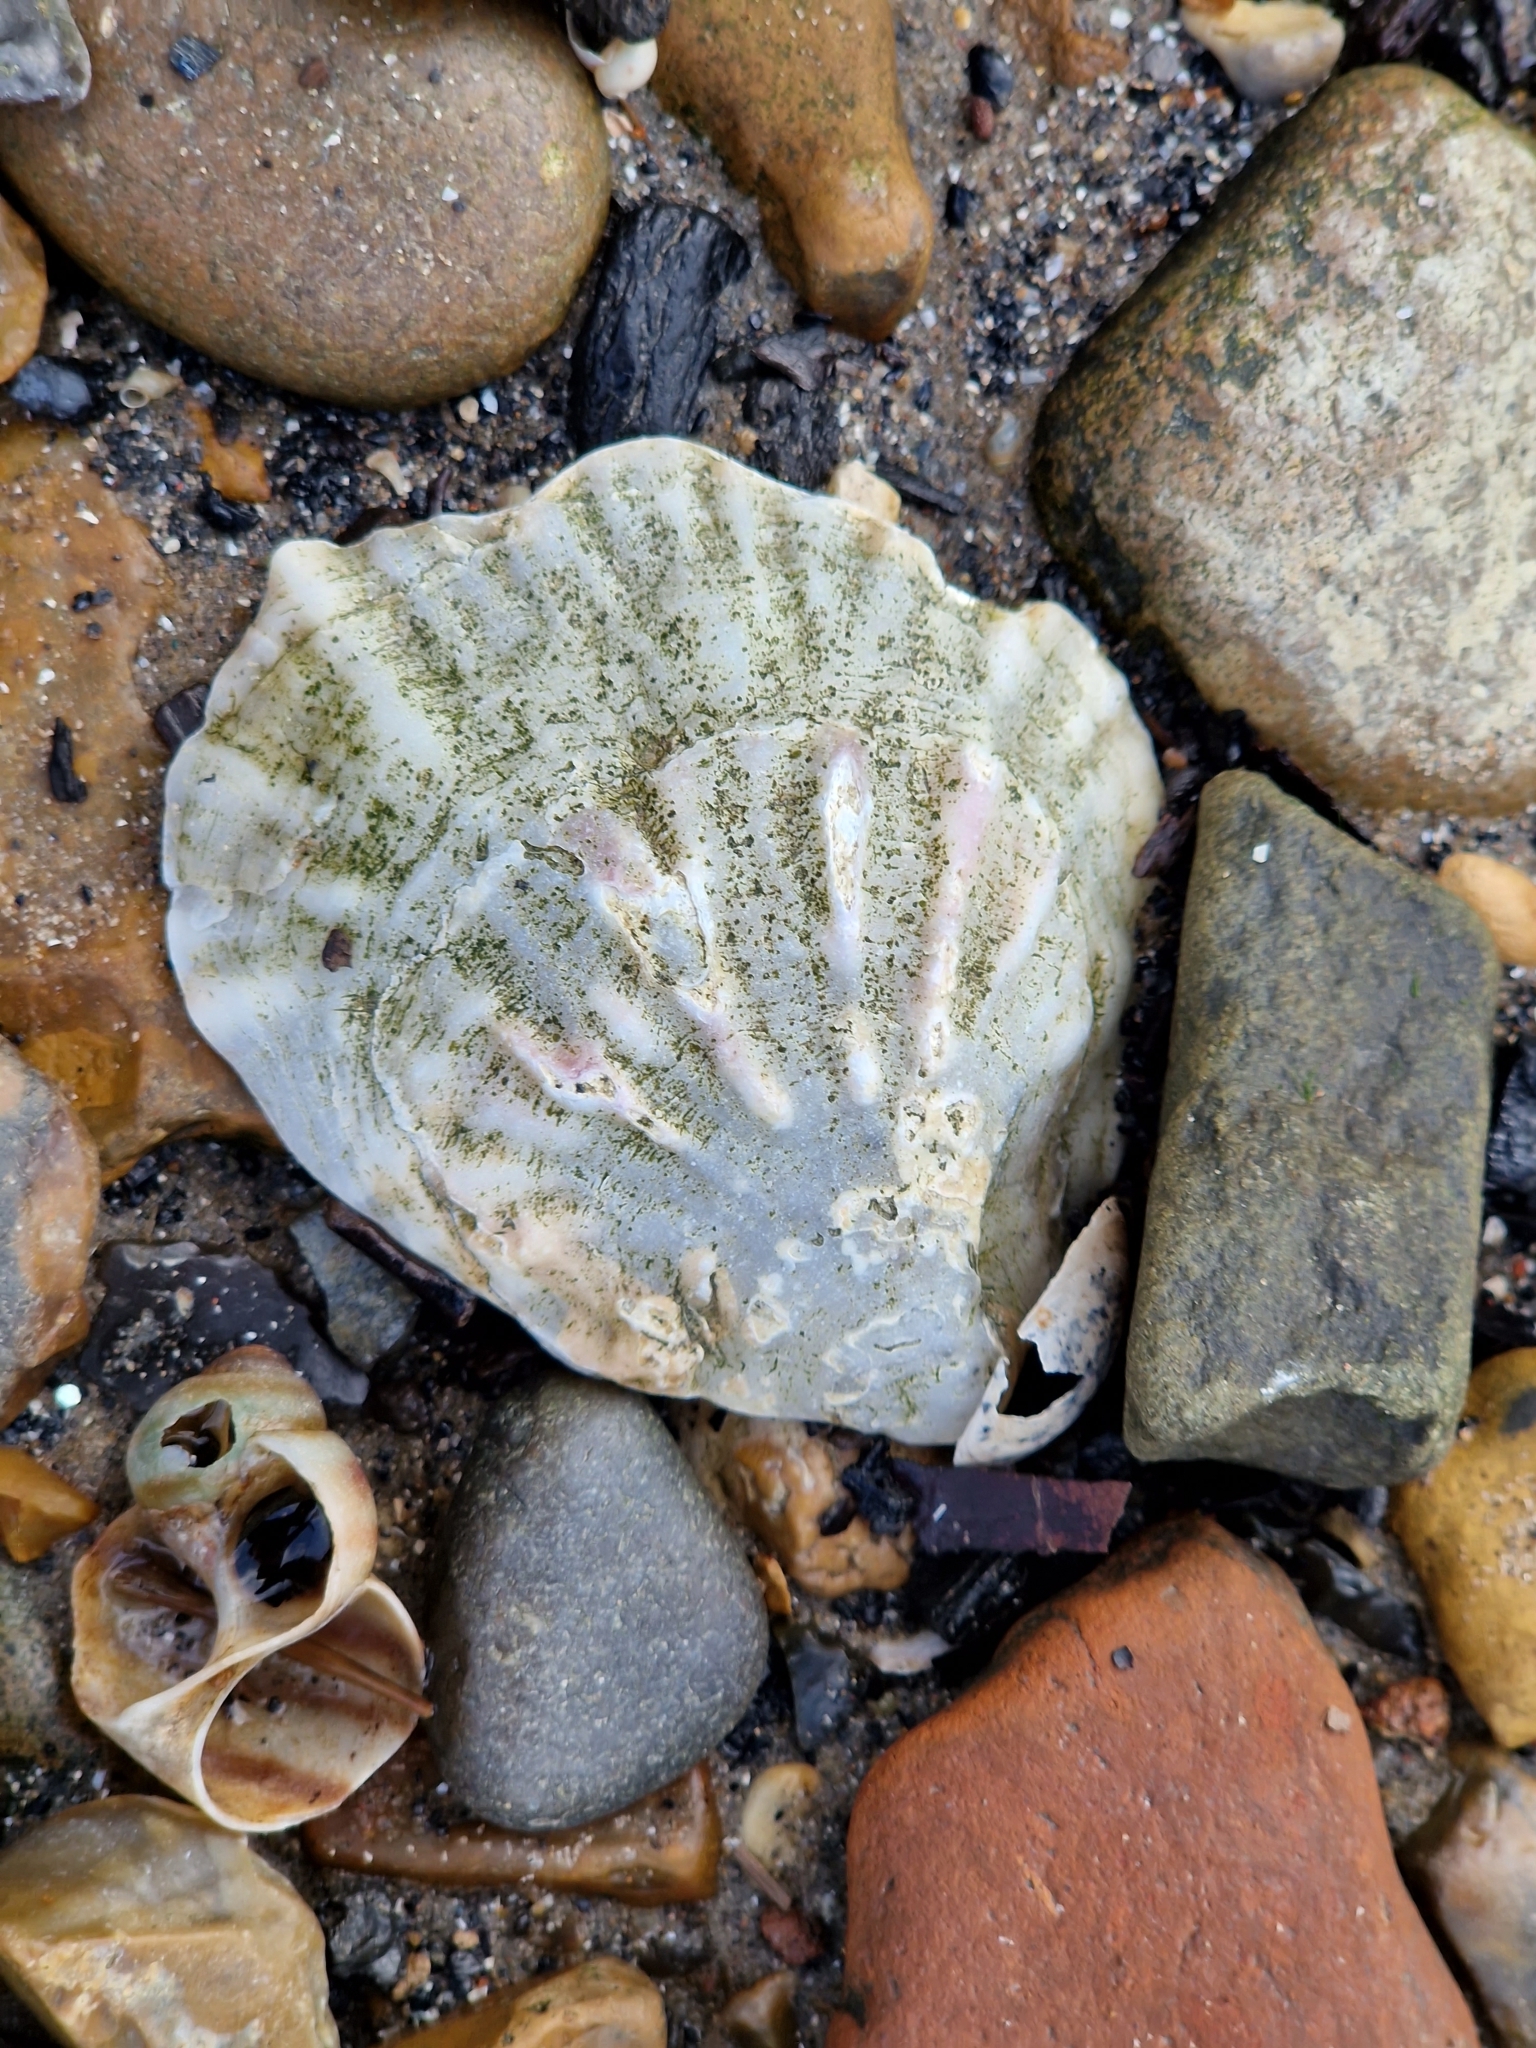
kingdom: Animalia
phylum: Mollusca
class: Bivalvia
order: Ostreida
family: Ostreidae
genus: Ostrea
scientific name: Ostrea edulis
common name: Flat oyster
